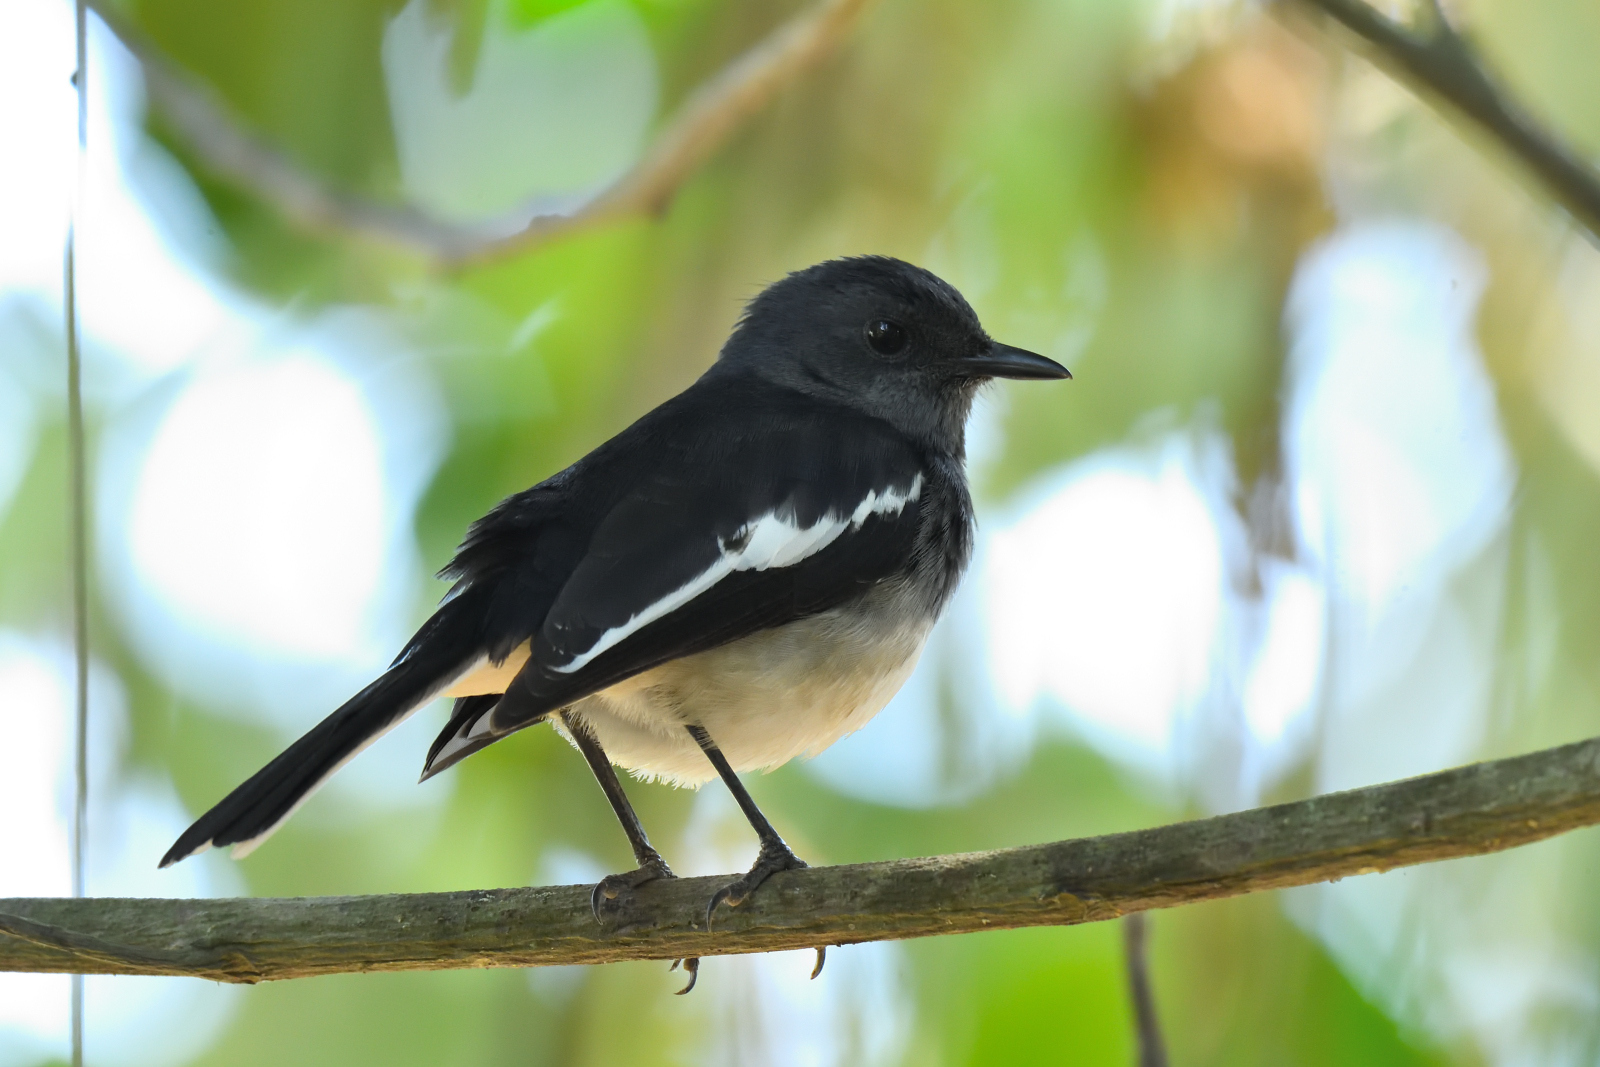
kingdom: Animalia
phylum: Chordata
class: Aves
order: Passeriformes
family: Muscicapidae
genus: Copsychus
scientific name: Copsychus saularis
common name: Oriental magpie-robin
